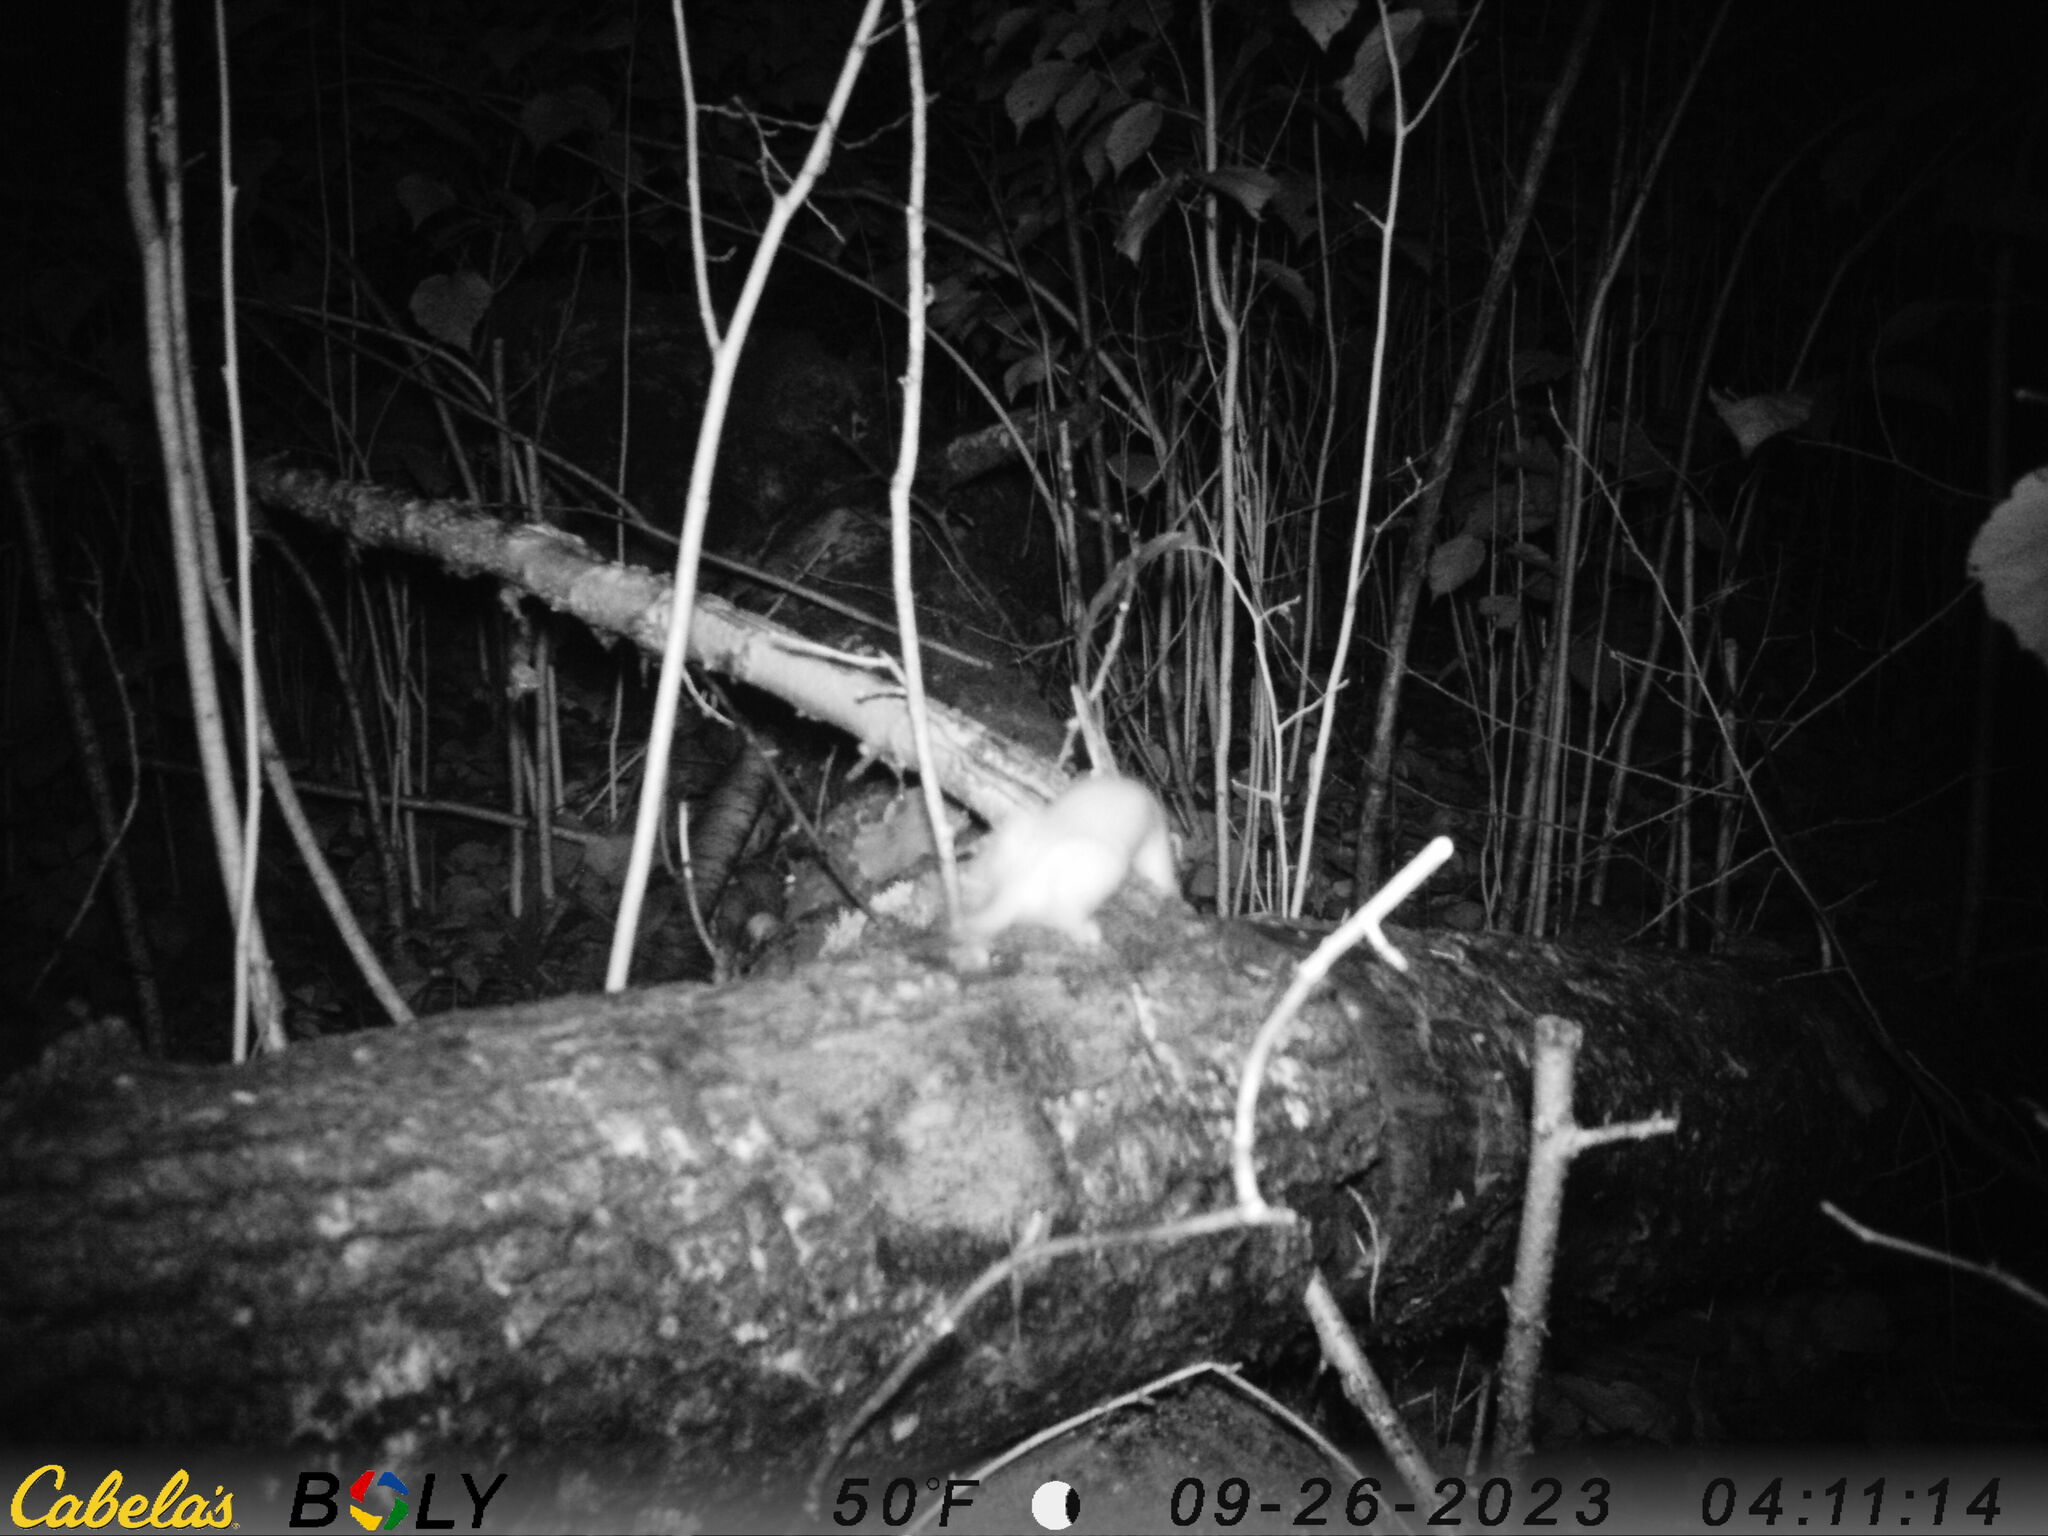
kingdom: Animalia
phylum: Chordata
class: Mammalia
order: Carnivora
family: Mustelidae
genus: Mustela
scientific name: Mustela erminea
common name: Stoat
